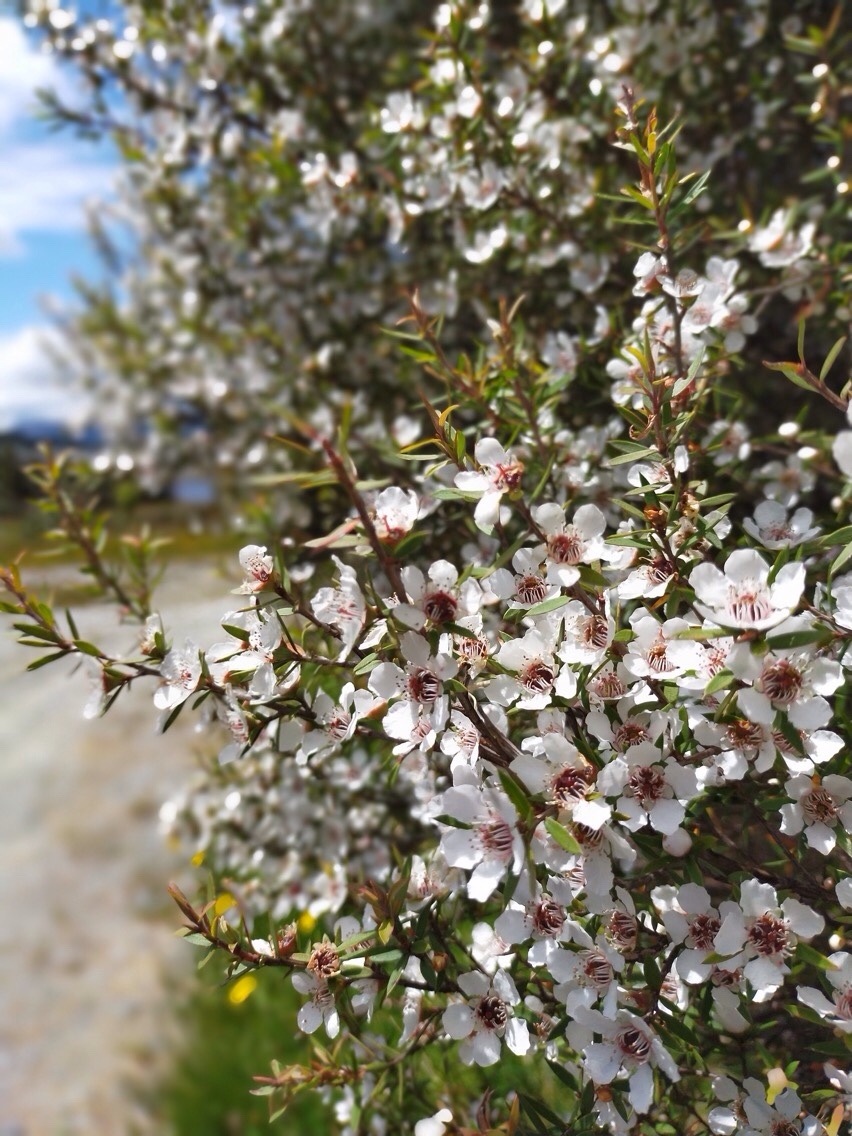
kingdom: Plantae
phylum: Tracheophyta
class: Magnoliopsida
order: Myrtales
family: Myrtaceae
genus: Leptospermum
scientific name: Leptospermum scoparium
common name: Broom tea-tree
